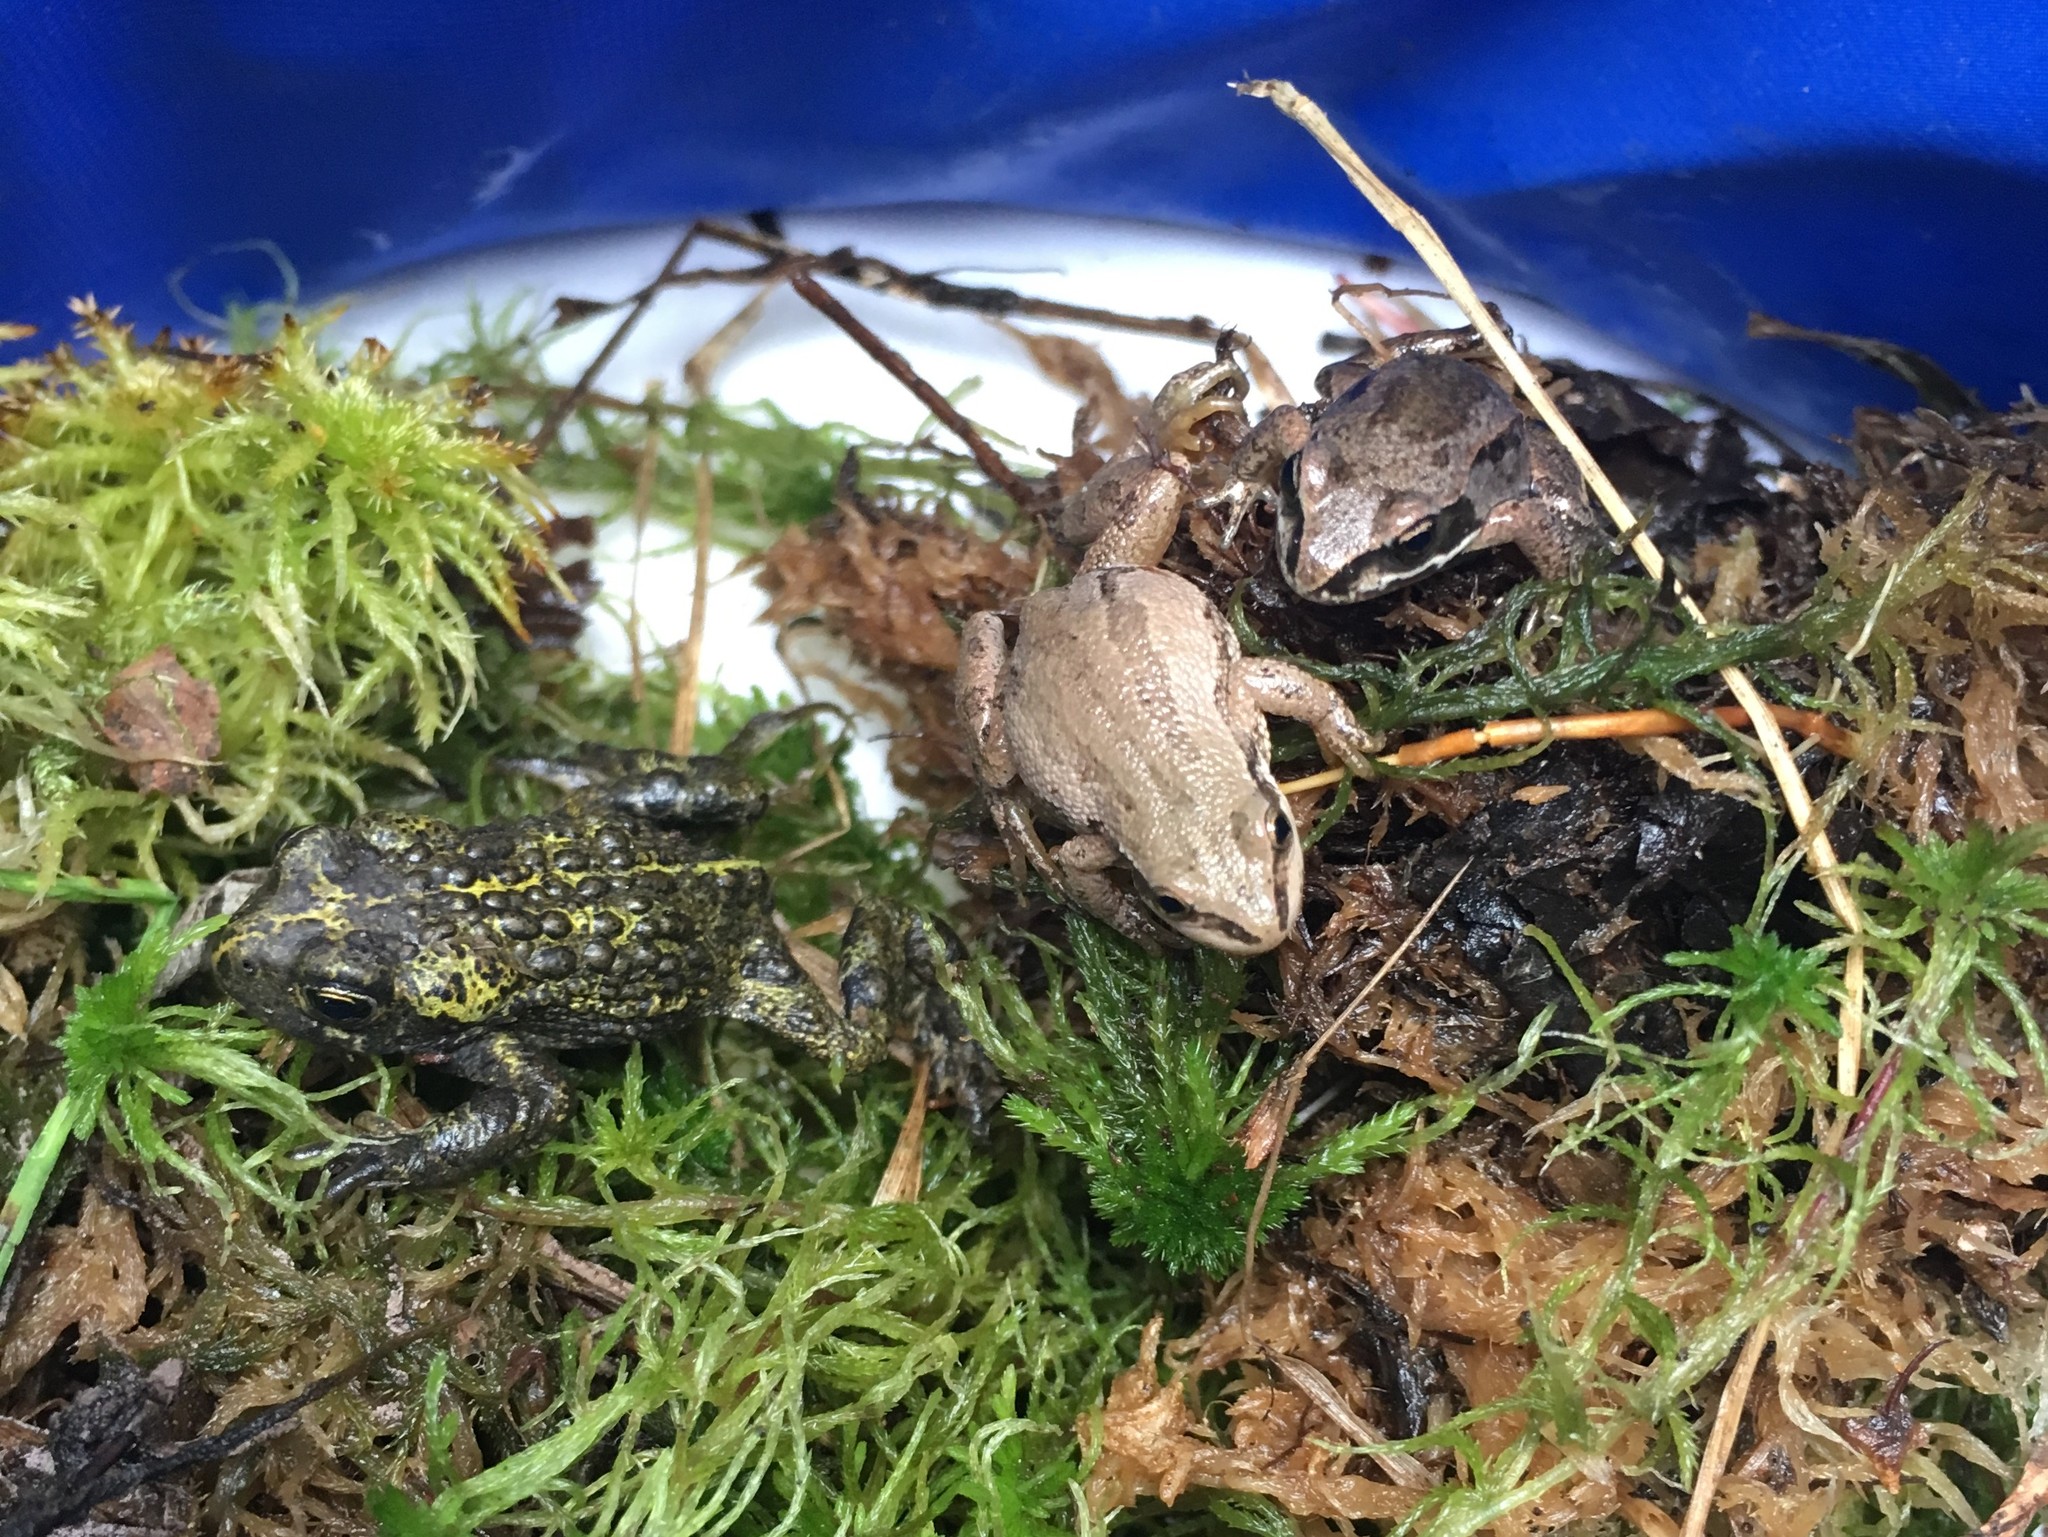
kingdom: Animalia
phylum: Chordata
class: Amphibia
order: Anura
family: Ranidae
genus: Lithobates
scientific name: Lithobates sylvaticus
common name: Wood frog
